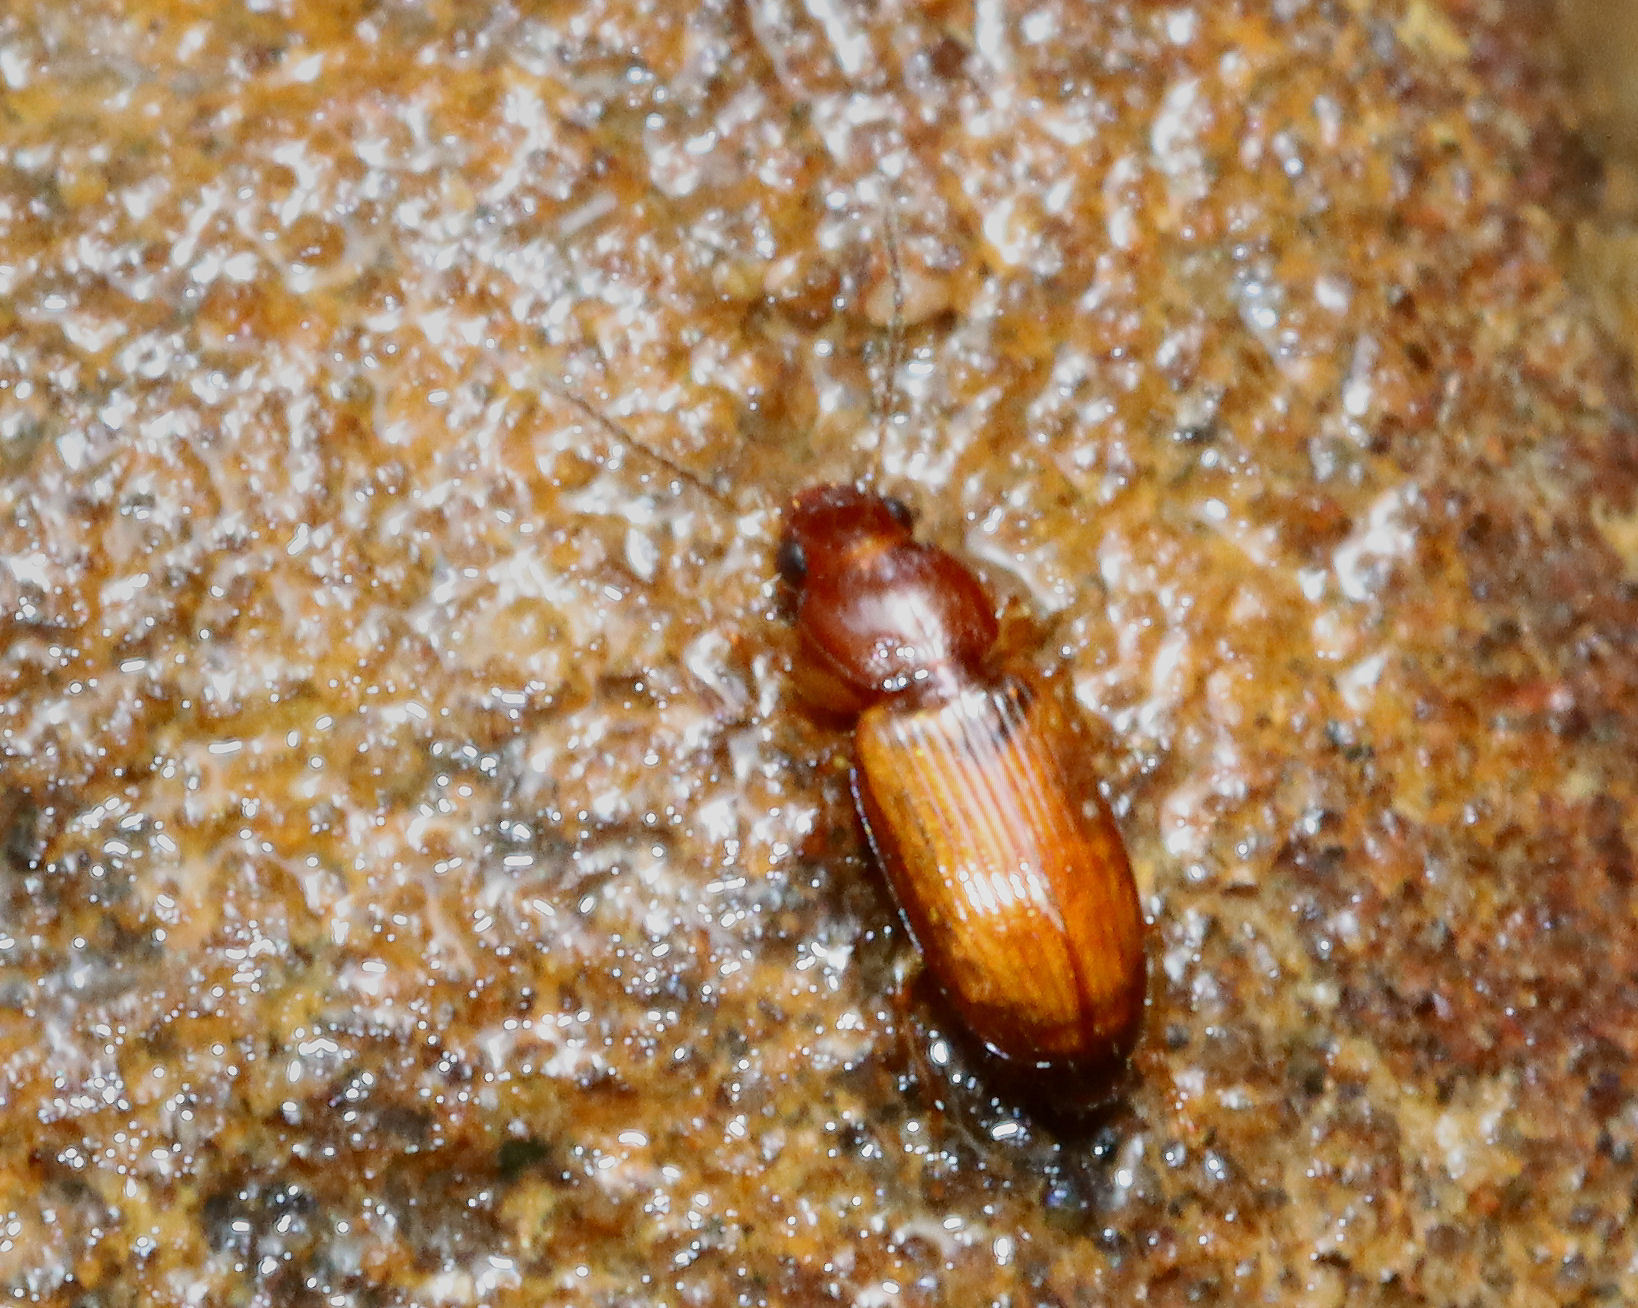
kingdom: Animalia
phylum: Arthropoda
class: Insecta
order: Coleoptera
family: Carabidae
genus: Acupalpus
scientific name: Acupalpus testaceus
